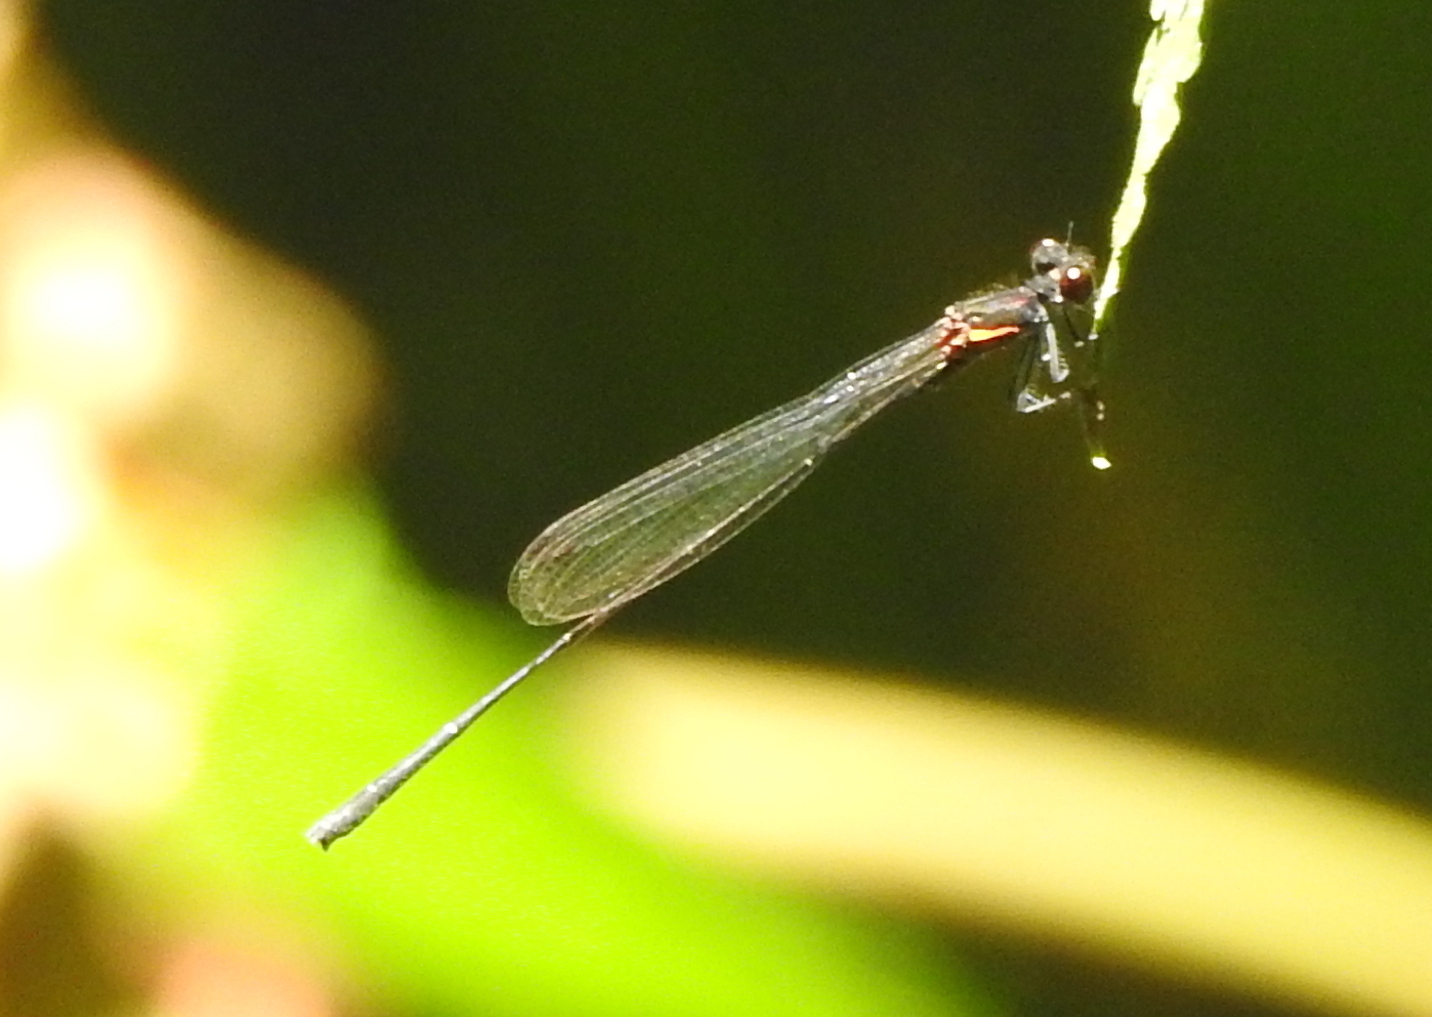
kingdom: Animalia
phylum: Arthropoda
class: Insecta
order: Odonata
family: Platycnemididae
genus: Prodasineura
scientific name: Prodasineura verticalis
